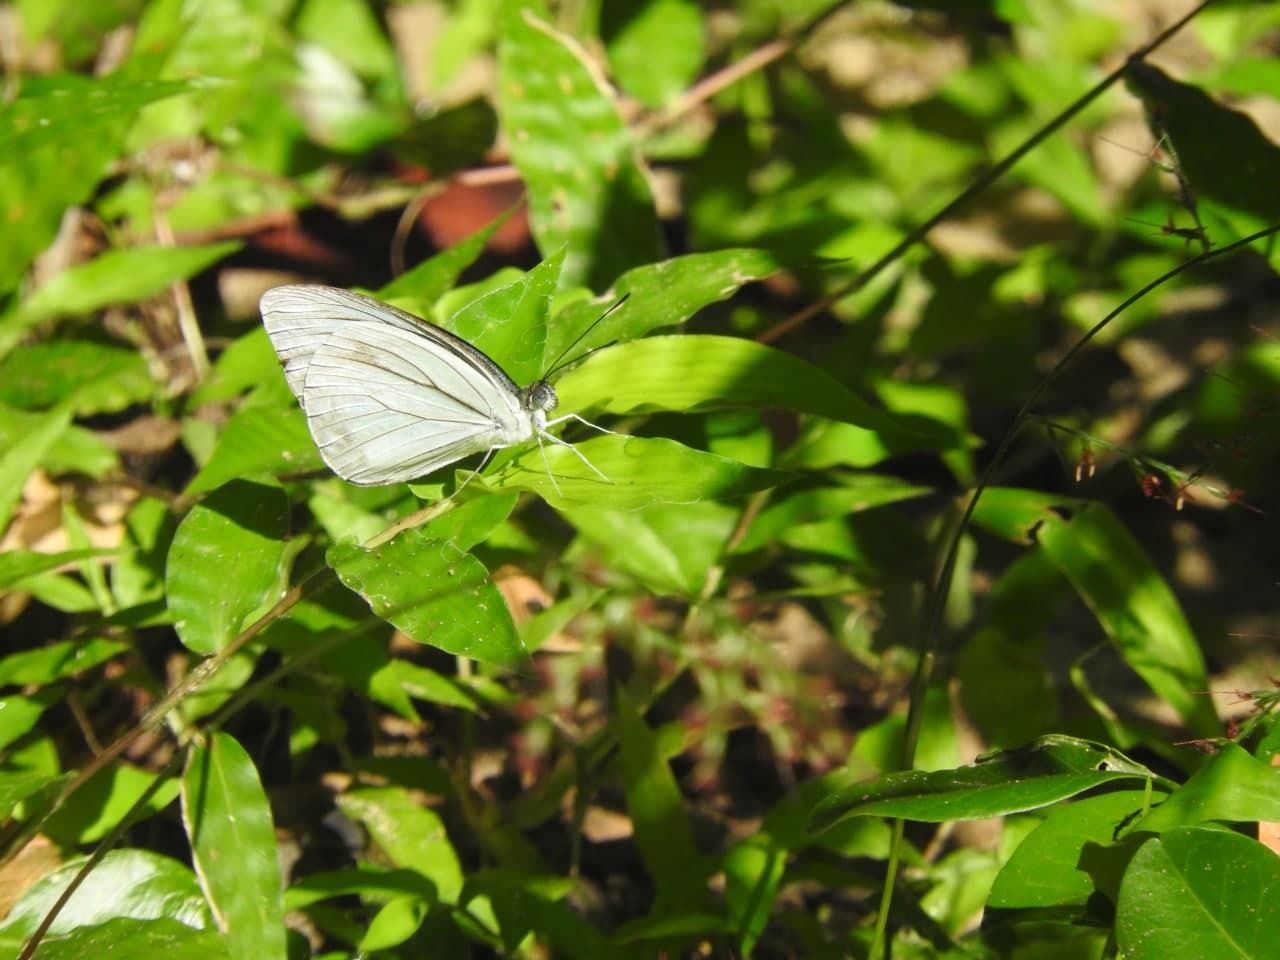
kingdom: Animalia
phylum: Arthropoda
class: Insecta
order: Lepidoptera
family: Pieridae
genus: Pareronia
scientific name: Pareronia hippia
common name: Indian wanderer
